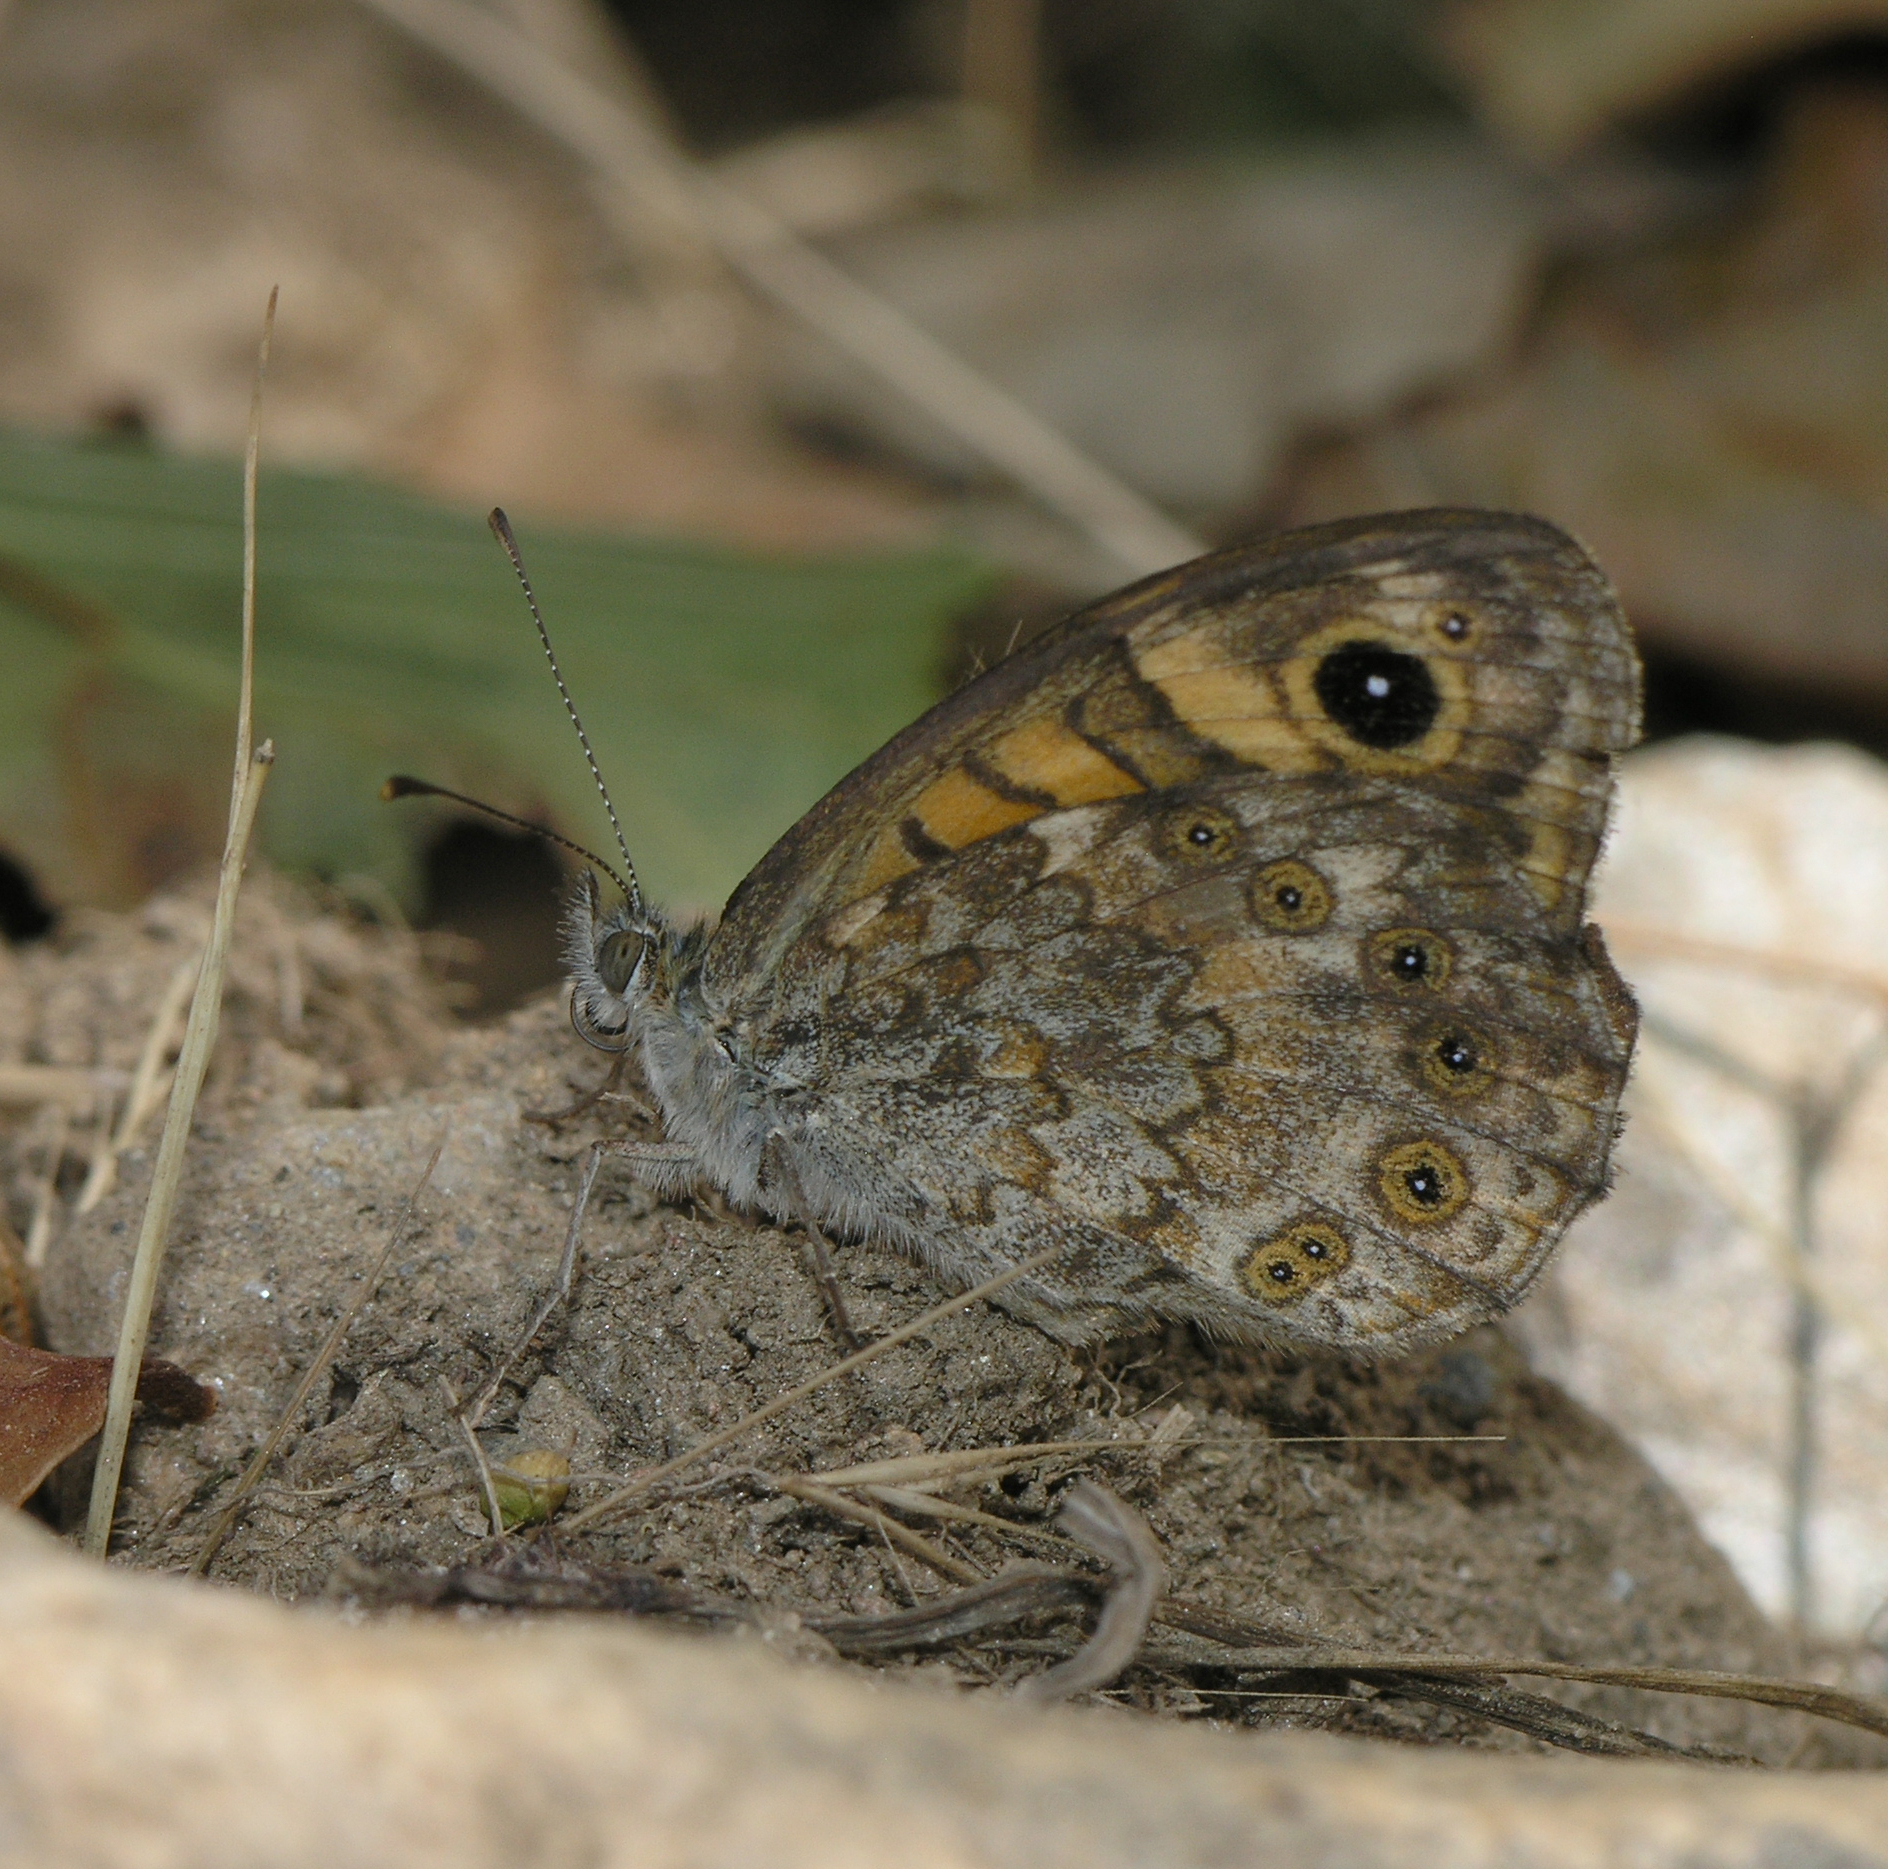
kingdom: Animalia
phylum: Arthropoda
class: Insecta
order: Lepidoptera
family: Nymphalidae
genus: Pararge
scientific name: Pararge Lasiommata megera
